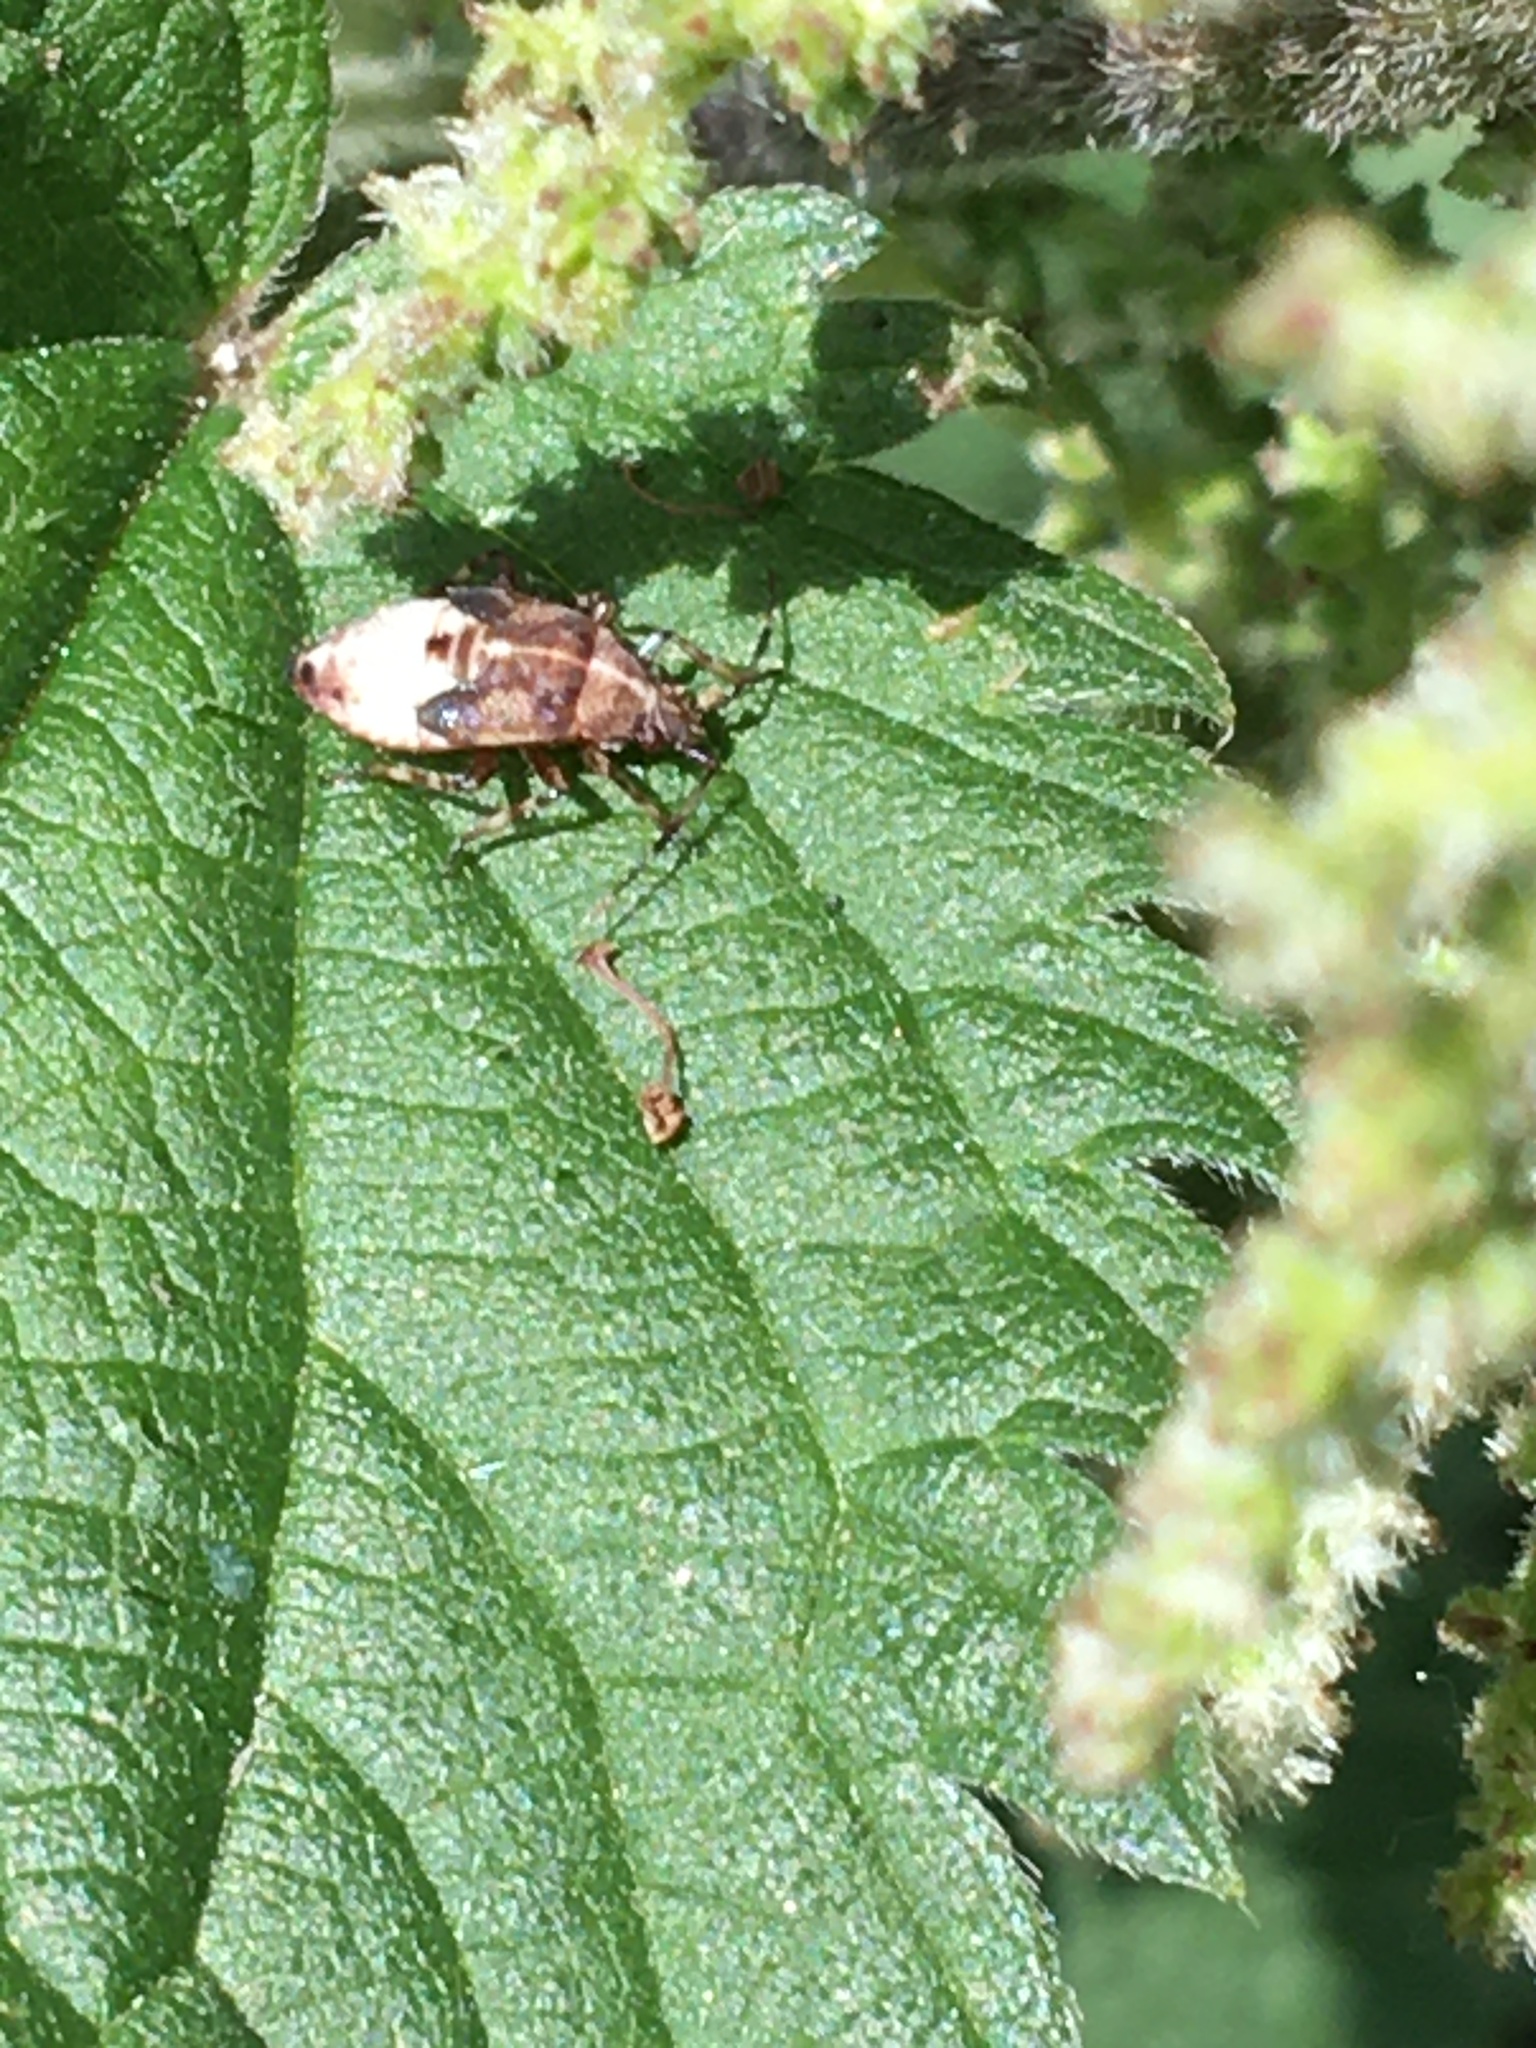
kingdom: Animalia
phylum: Arthropoda
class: Insecta
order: Hemiptera
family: Miridae
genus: Deraeocoris
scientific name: Deraeocoris flavilinea
